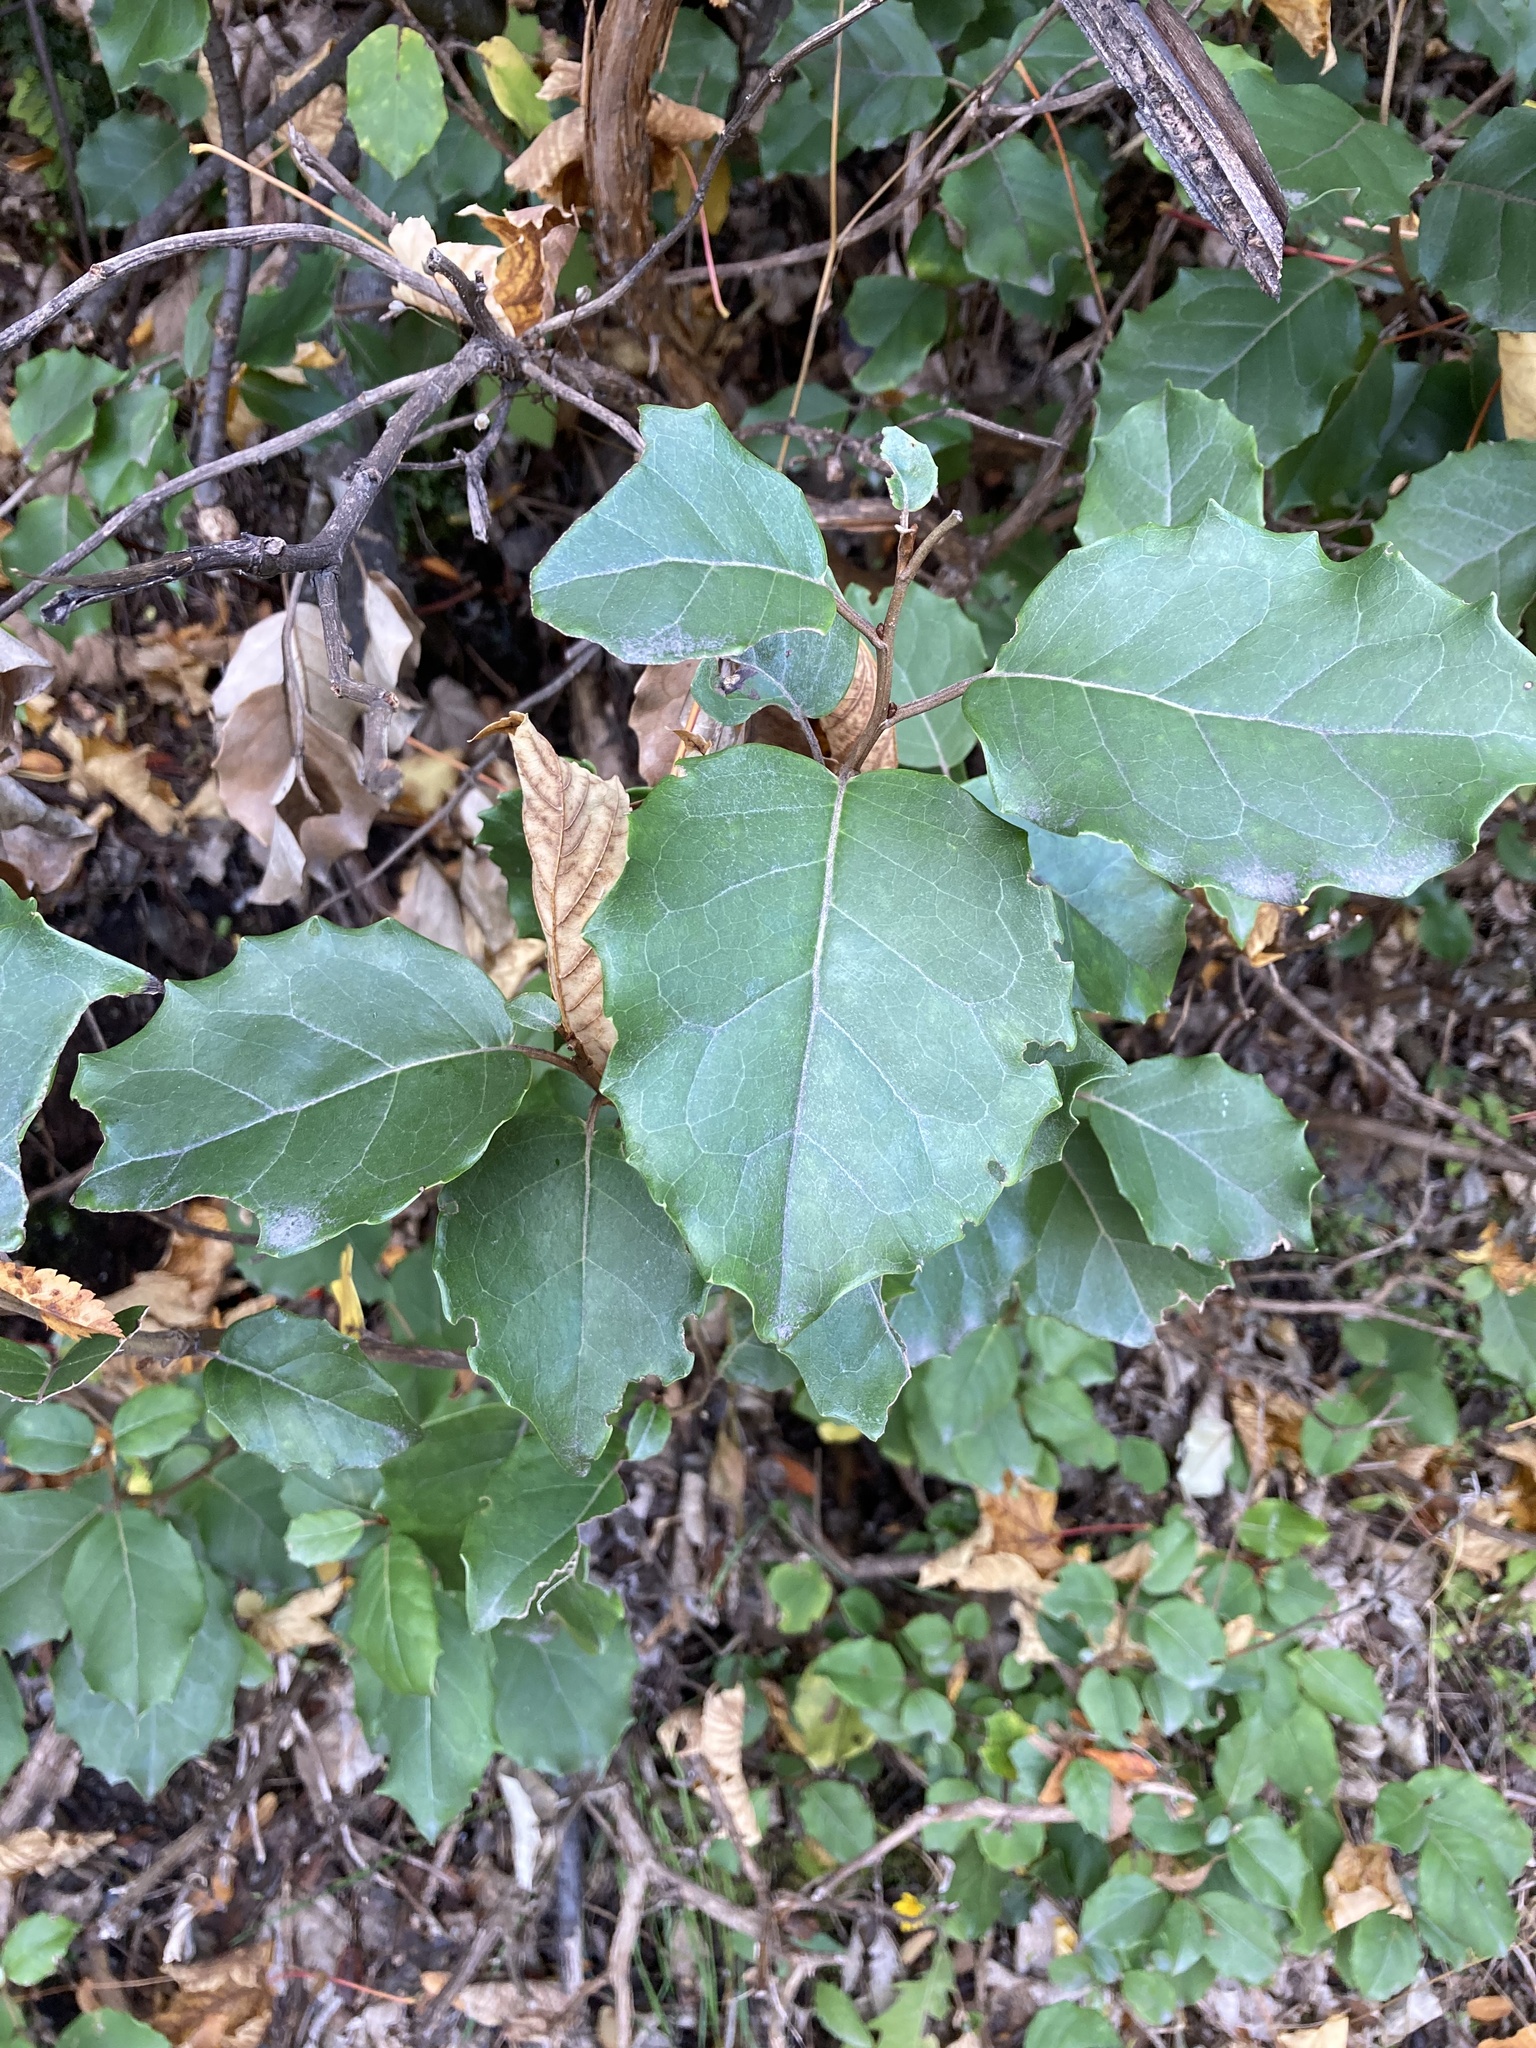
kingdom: Plantae
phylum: Tracheophyta
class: Magnoliopsida
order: Asterales
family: Asteraceae
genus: Olearia
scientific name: Olearia arborescens
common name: Glossy tree daisy
